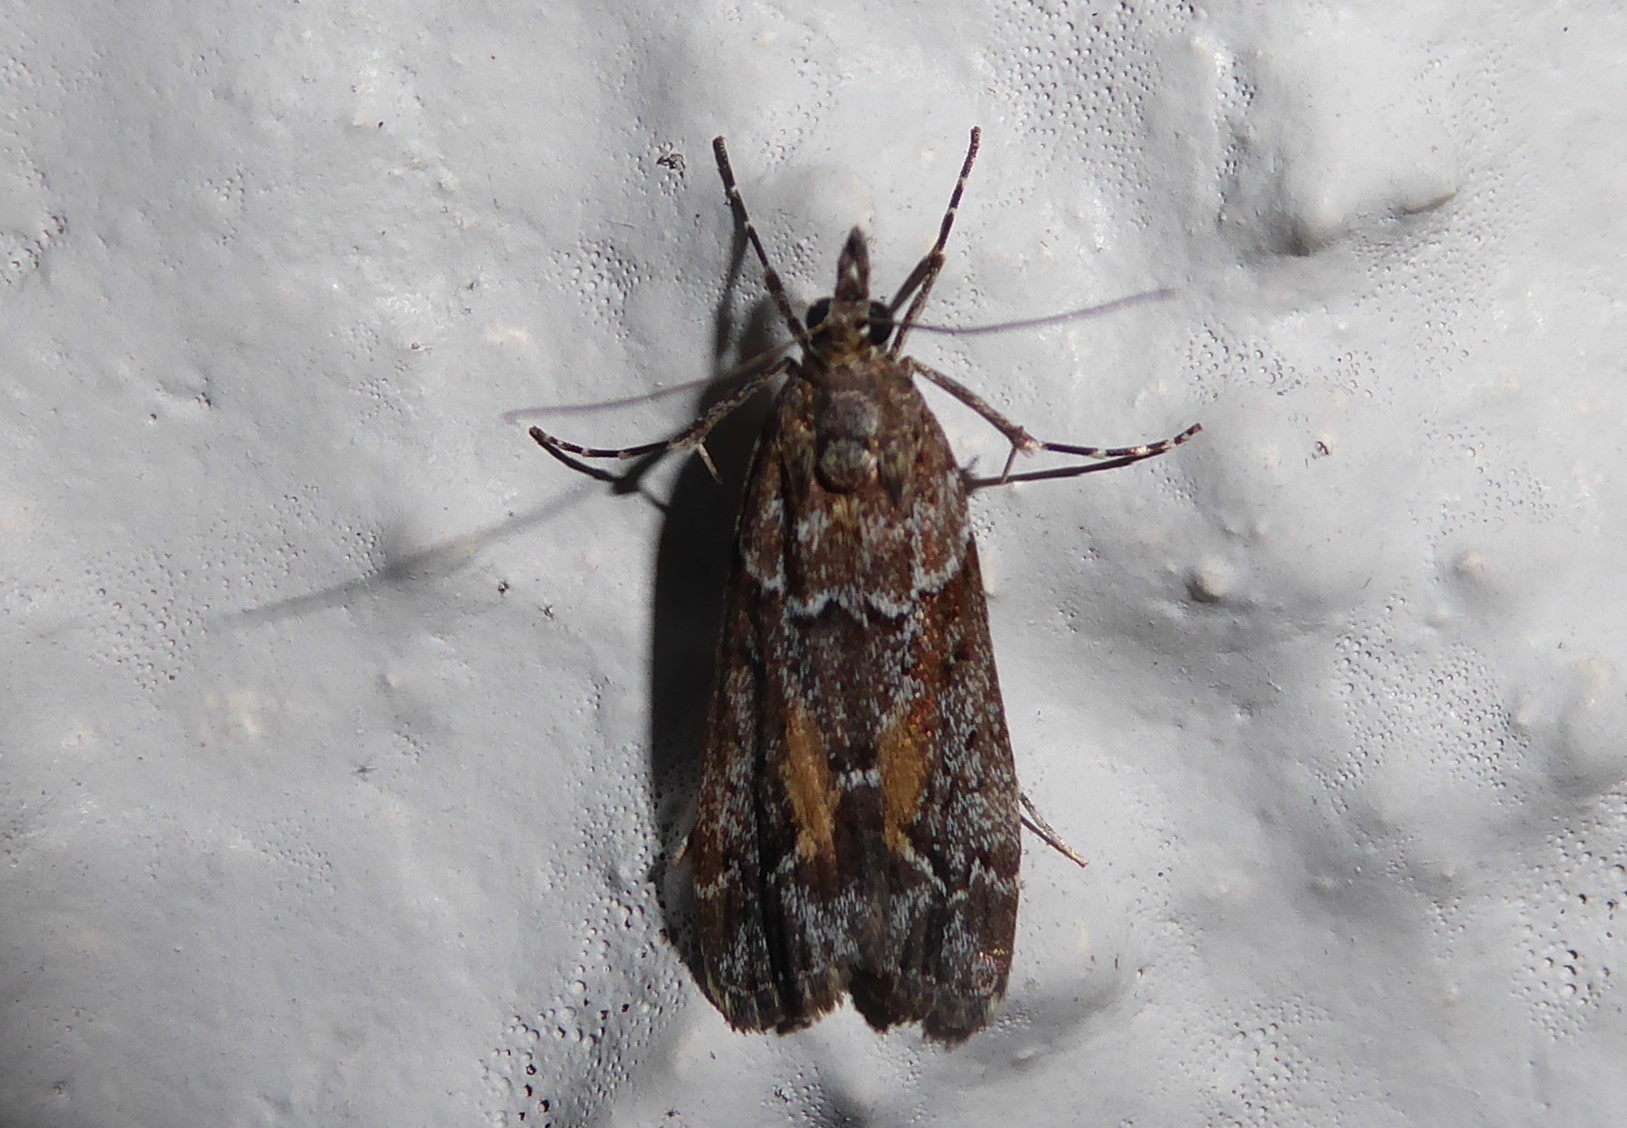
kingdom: Animalia
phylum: Arthropoda
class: Insecta
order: Lepidoptera
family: Crambidae
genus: Eudonia
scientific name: Eudonia submarginalis
